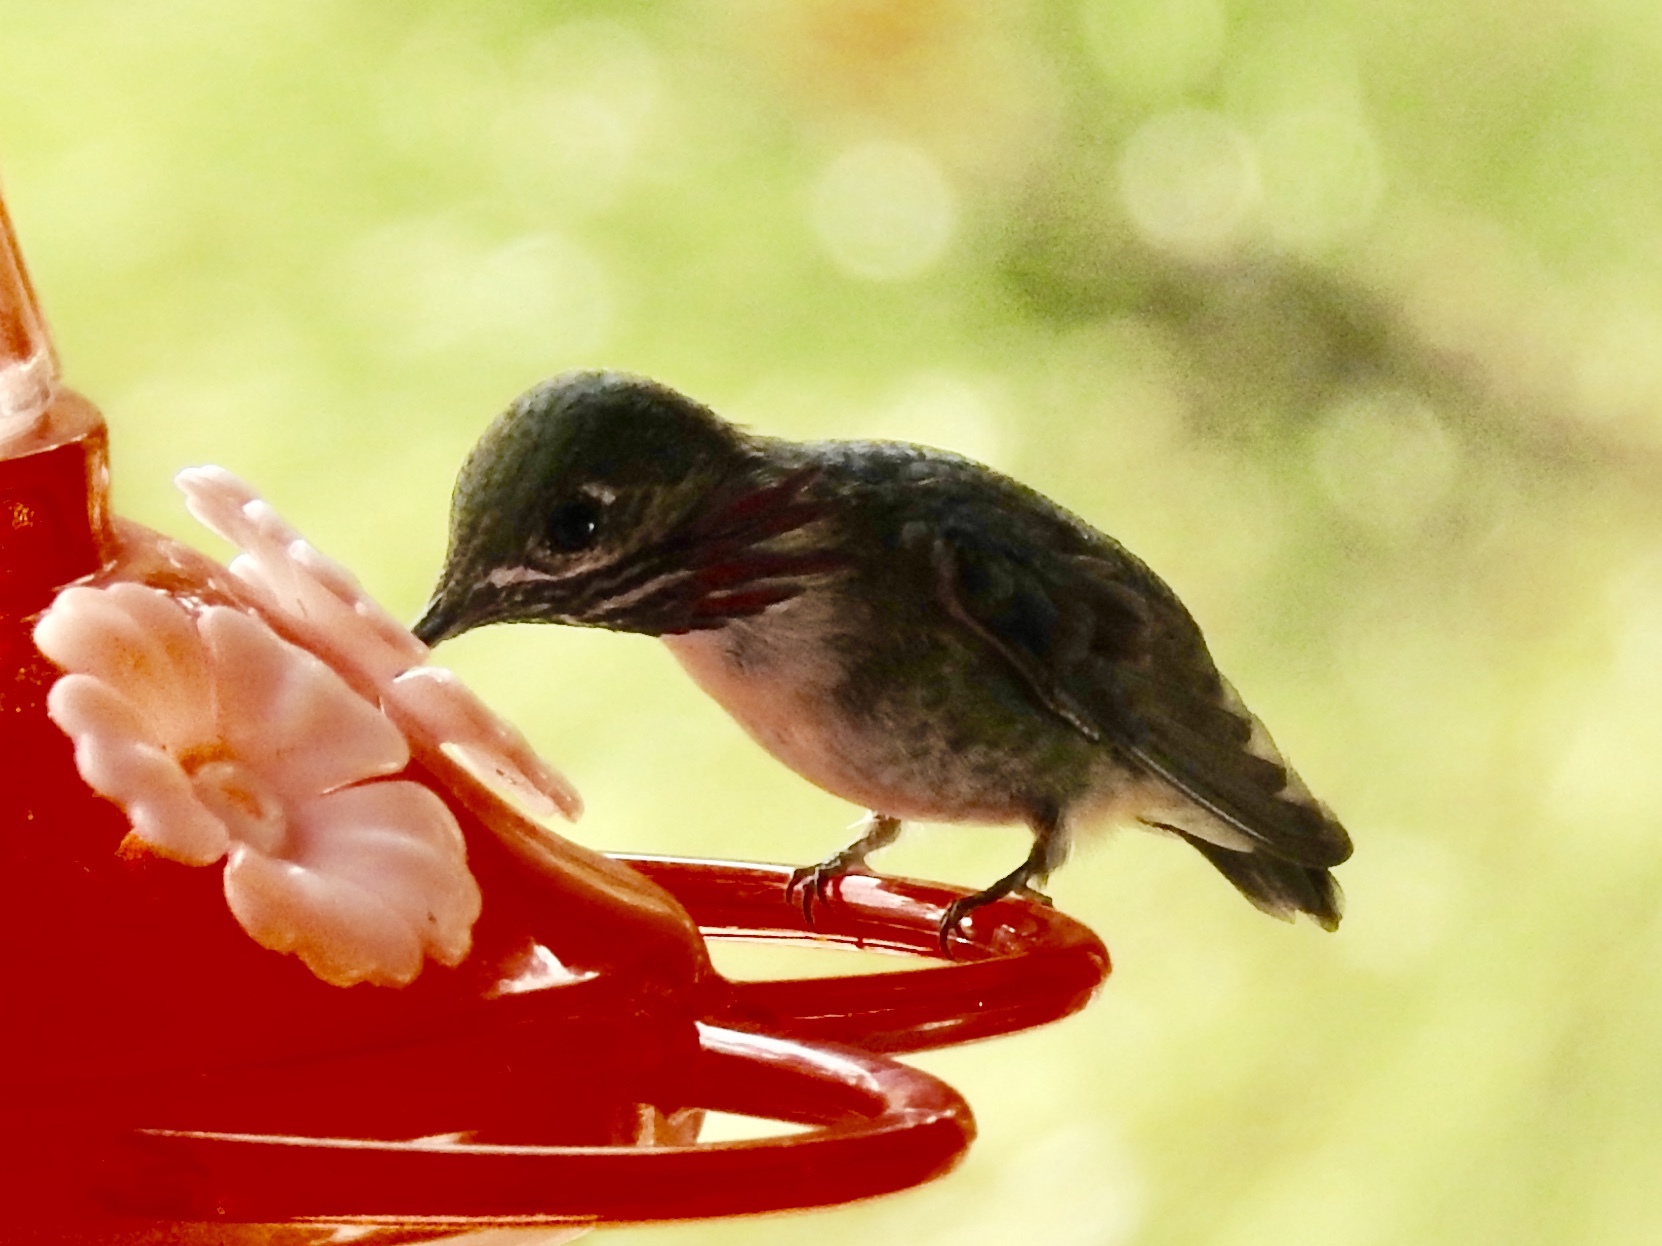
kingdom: Animalia
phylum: Chordata
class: Aves
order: Apodiformes
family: Trochilidae
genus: Selasphorus
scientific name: Selasphorus calliope
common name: Calliope hummingbird
